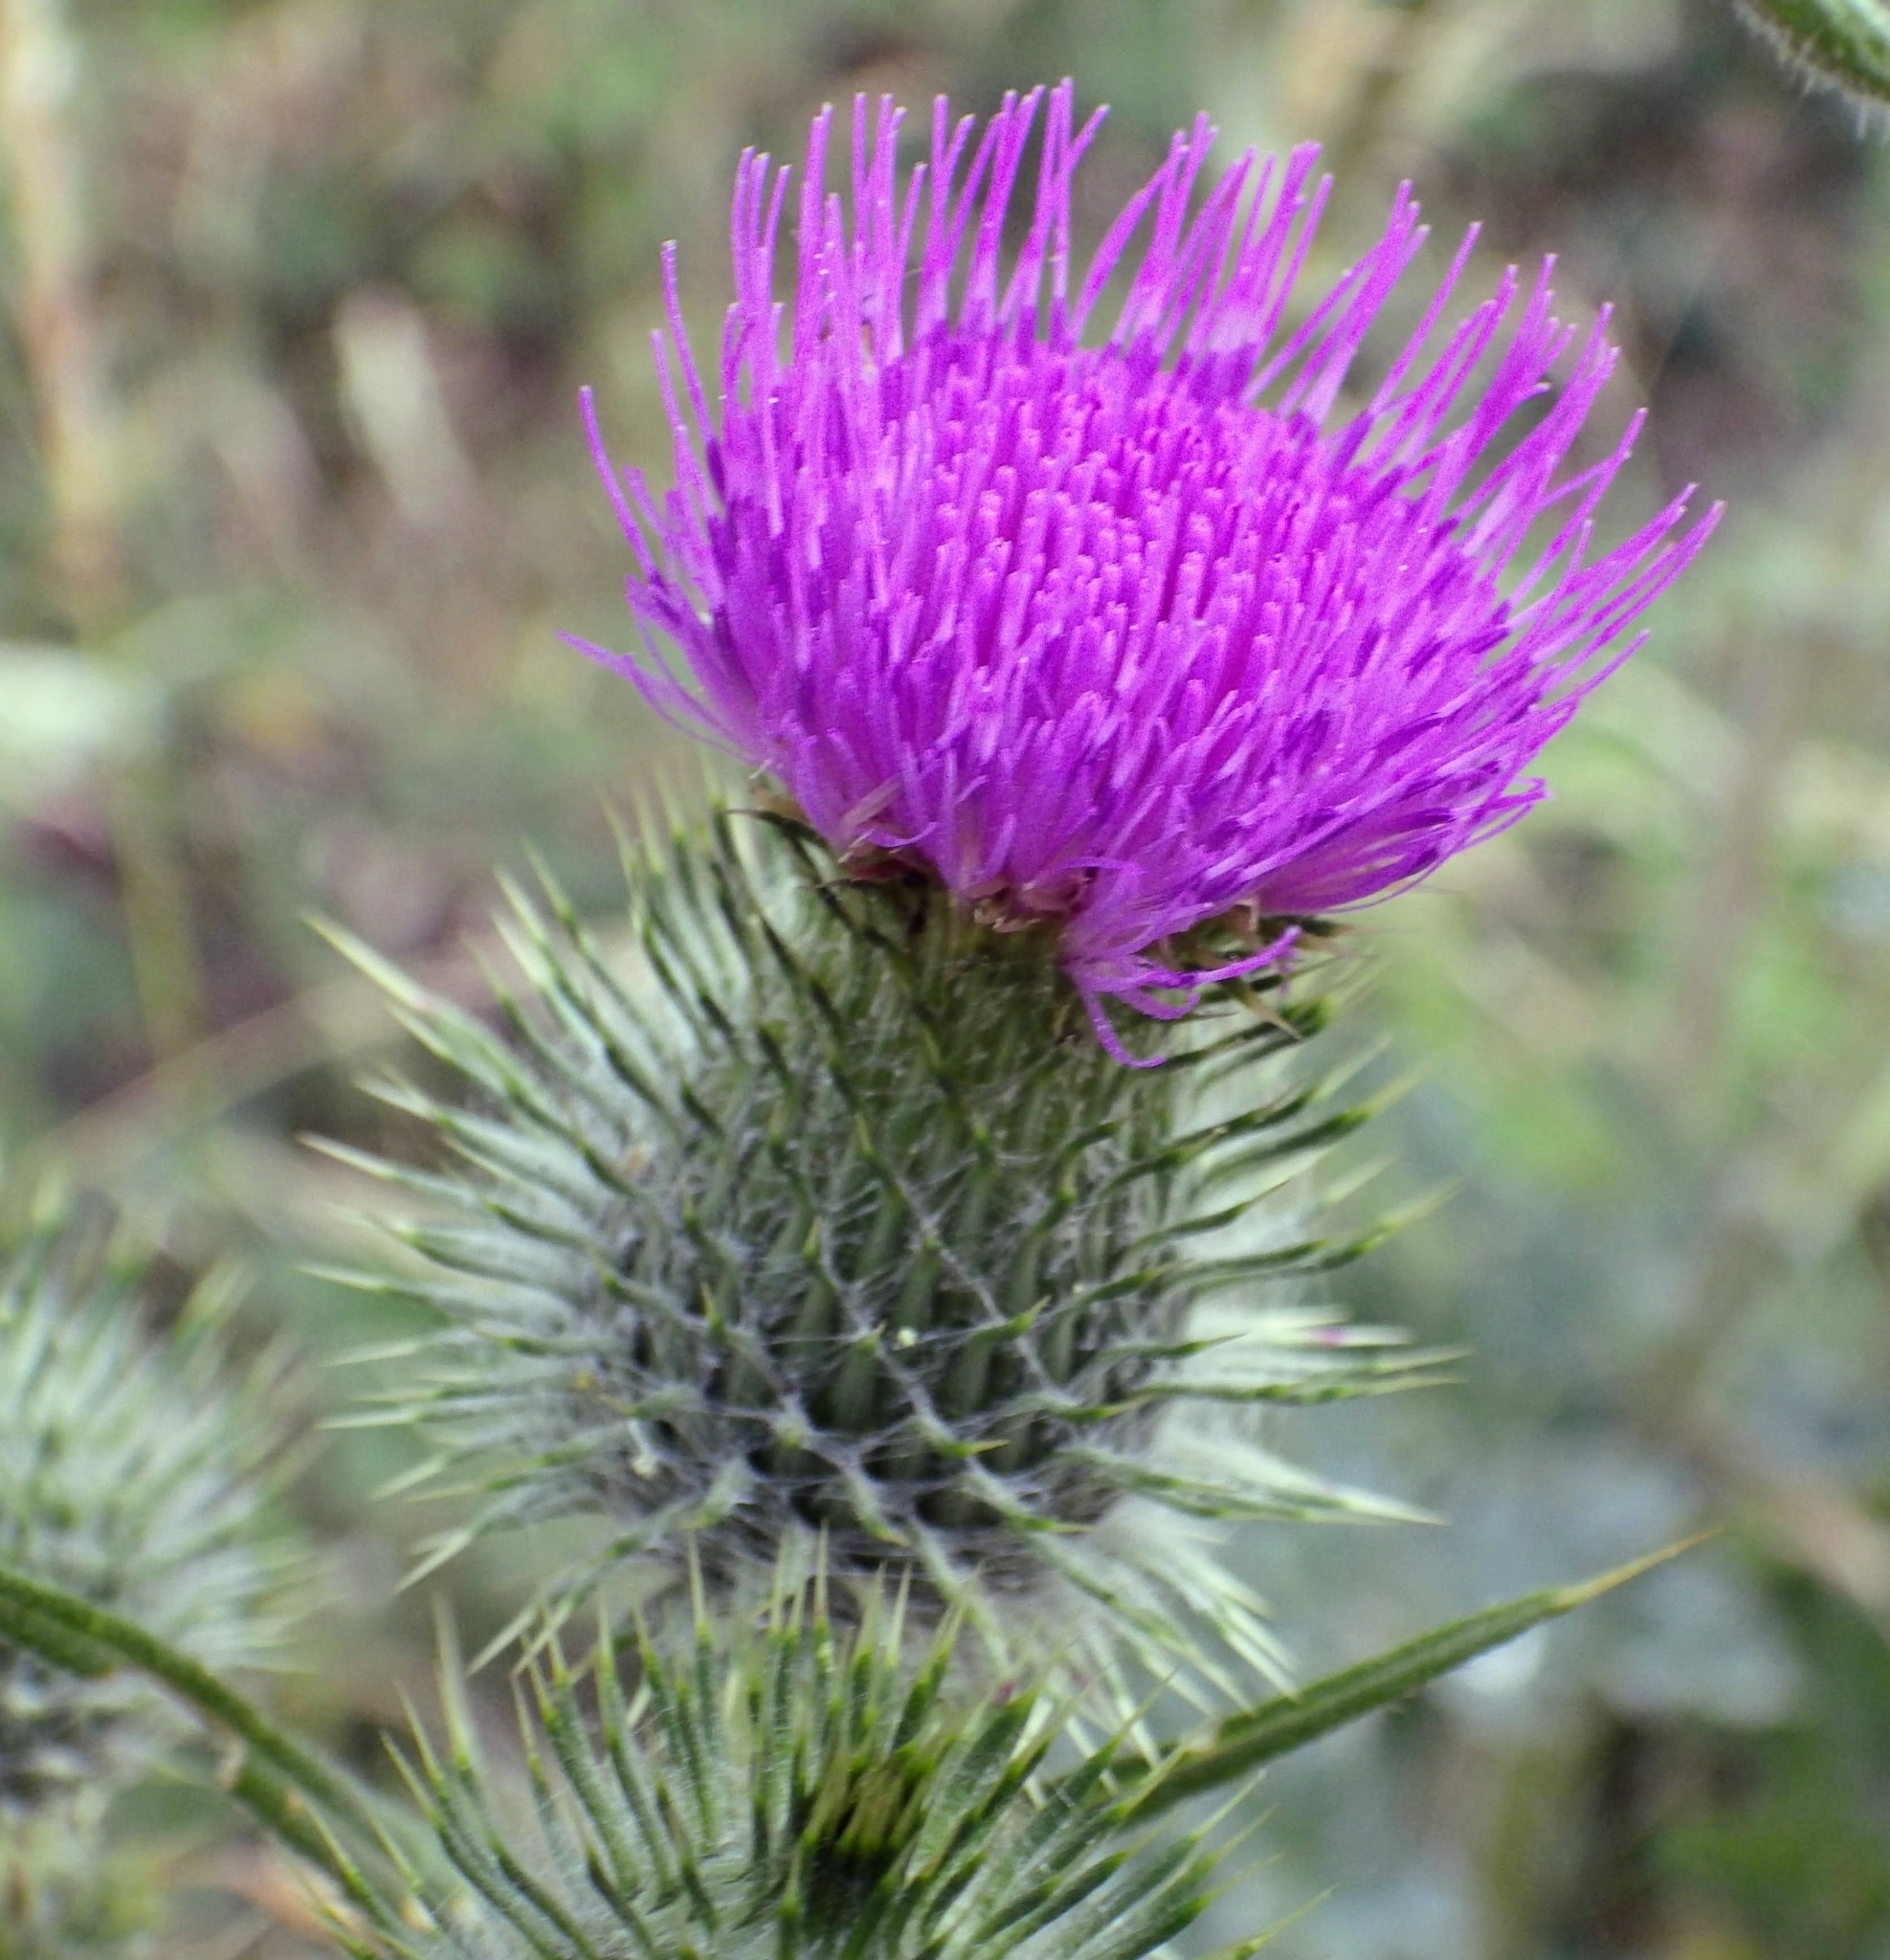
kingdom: Plantae
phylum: Tracheophyta
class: Magnoliopsida
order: Asterales
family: Asteraceae
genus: Cirsium
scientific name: Cirsium vulgare
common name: Bull thistle
